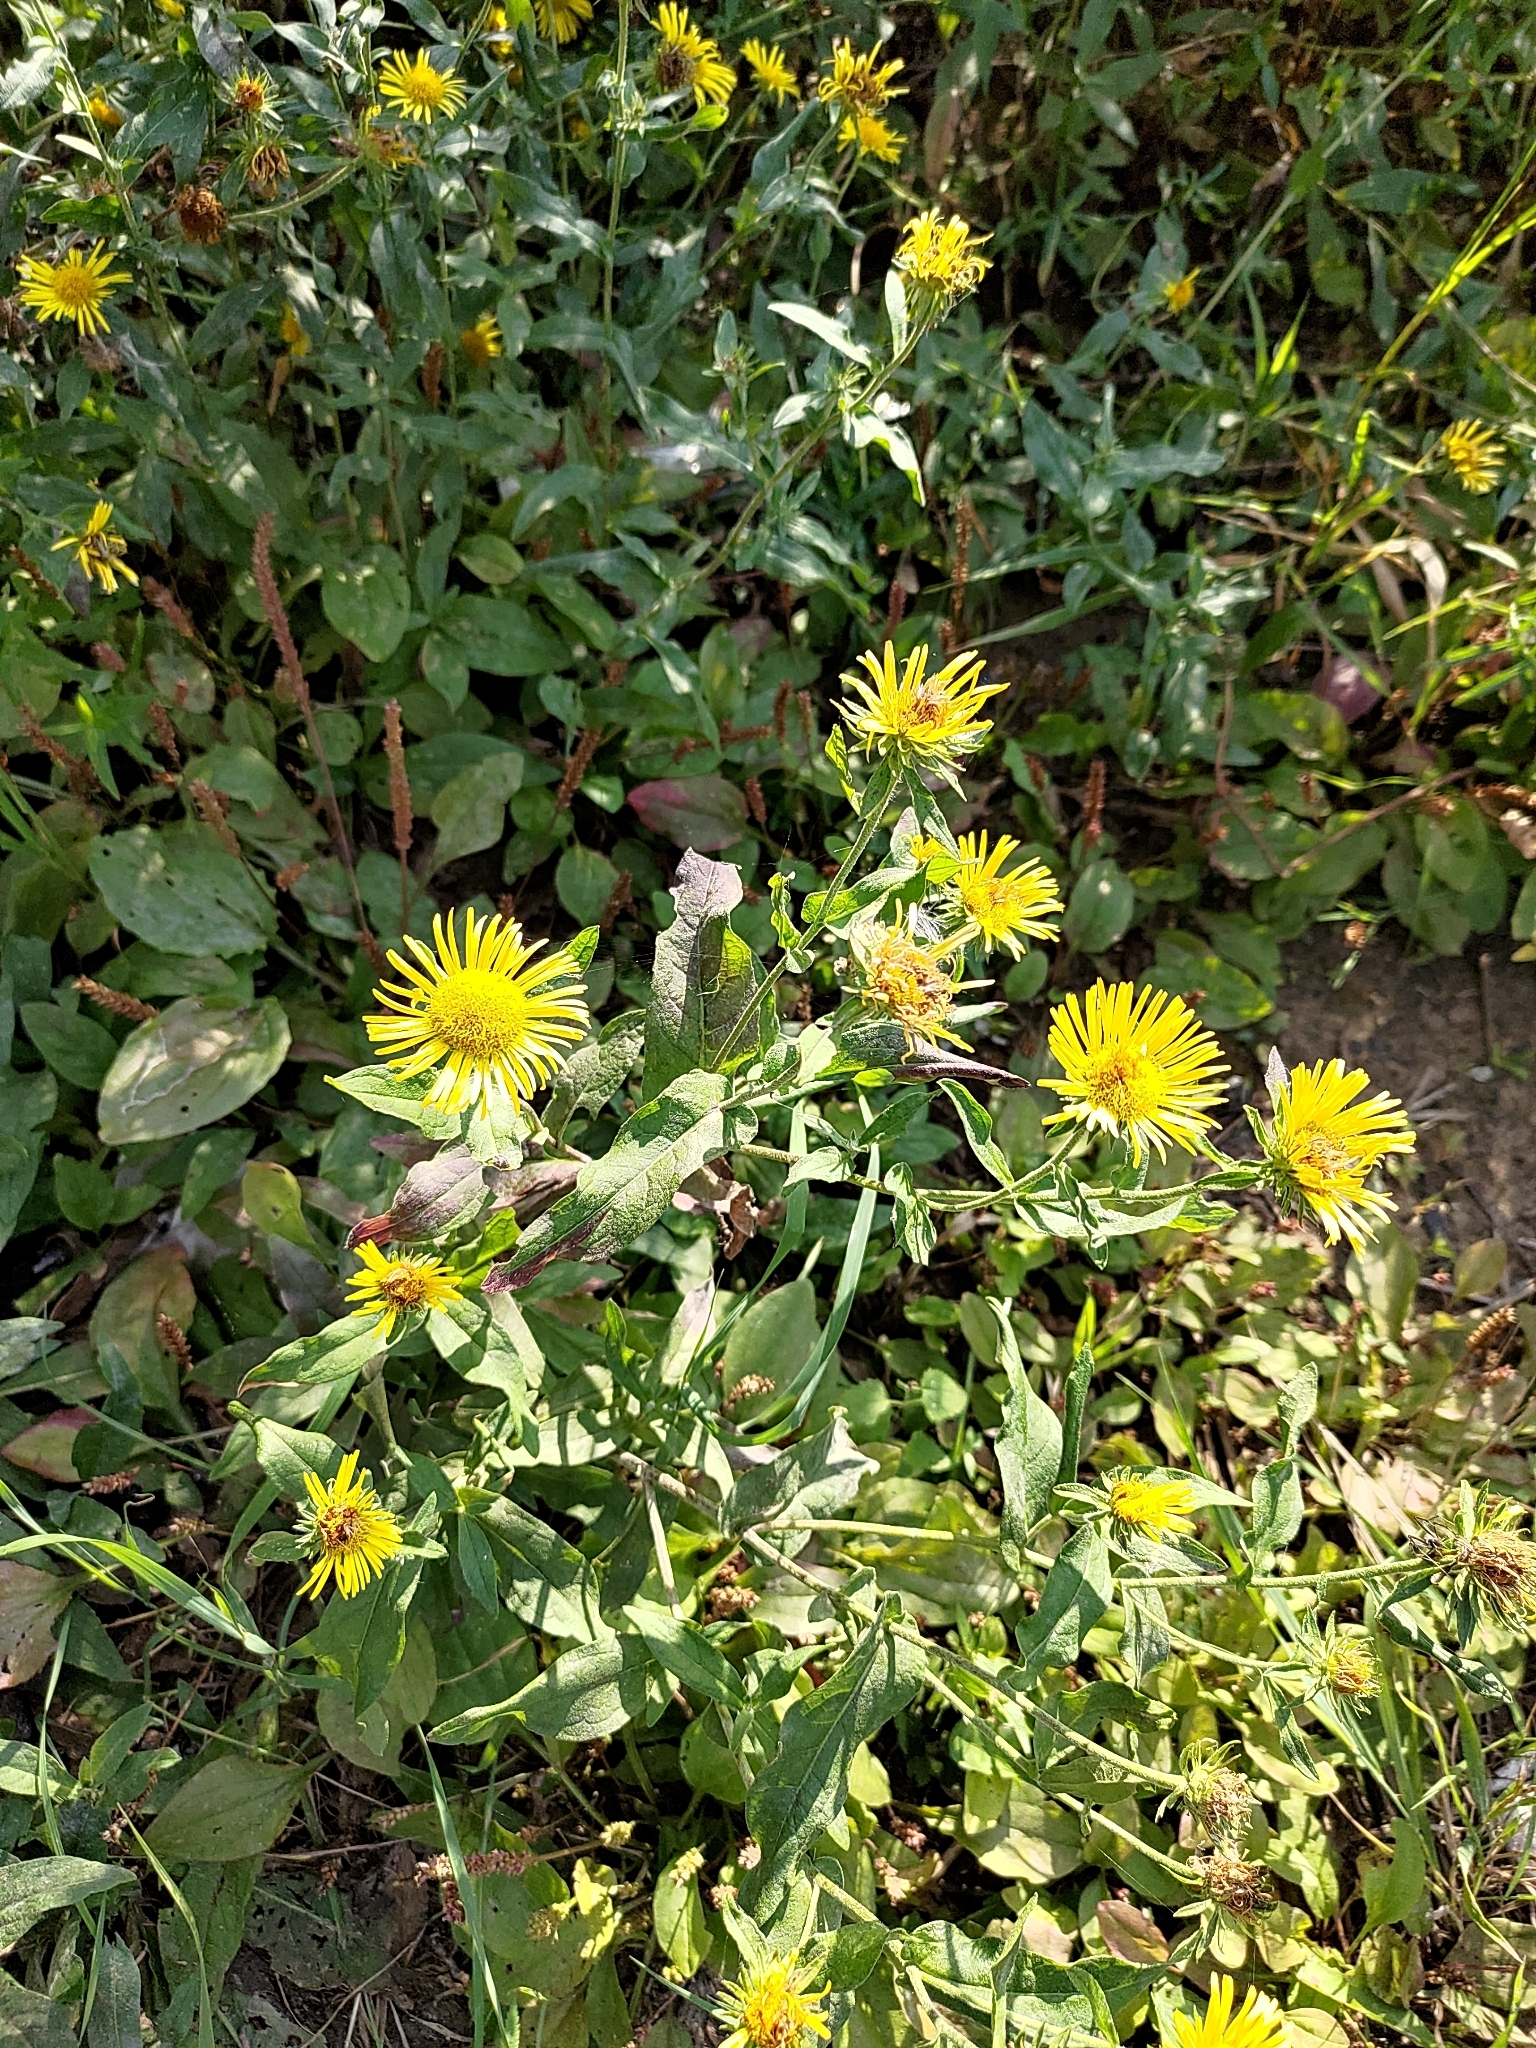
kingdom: Plantae
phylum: Tracheophyta
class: Magnoliopsida
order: Asterales
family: Asteraceae
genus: Pentanema
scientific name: Pentanema britannicum
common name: British elecampane
